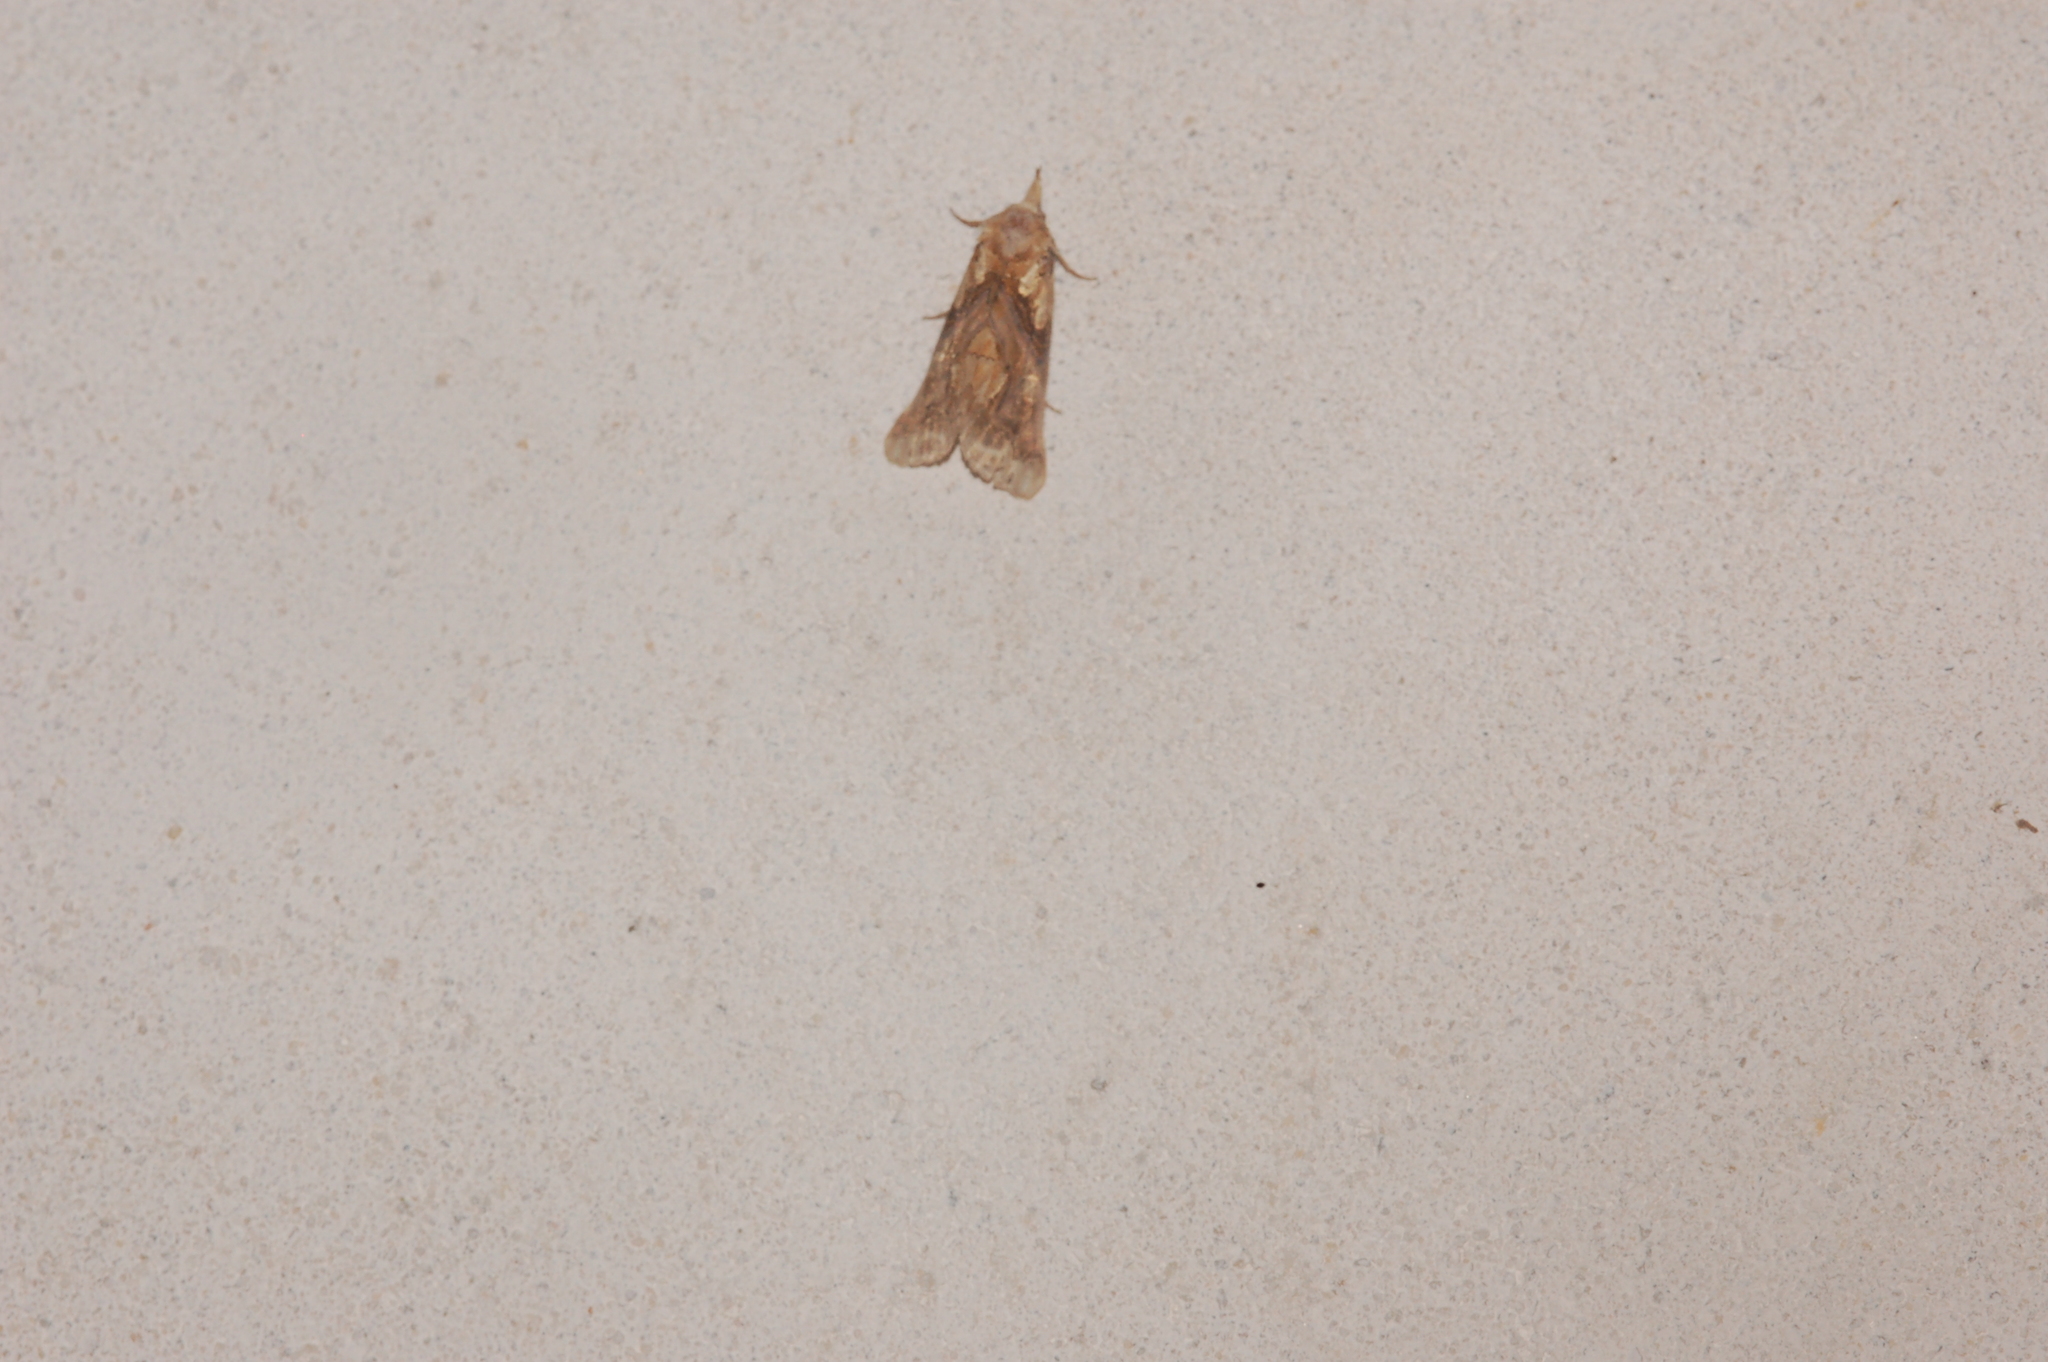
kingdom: Animalia
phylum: Arthropoda
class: Insecta
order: Lepidoptera
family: Erebidae
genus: Plusiodonta
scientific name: Plusiodonta compressipalpis
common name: Moonseed moth
